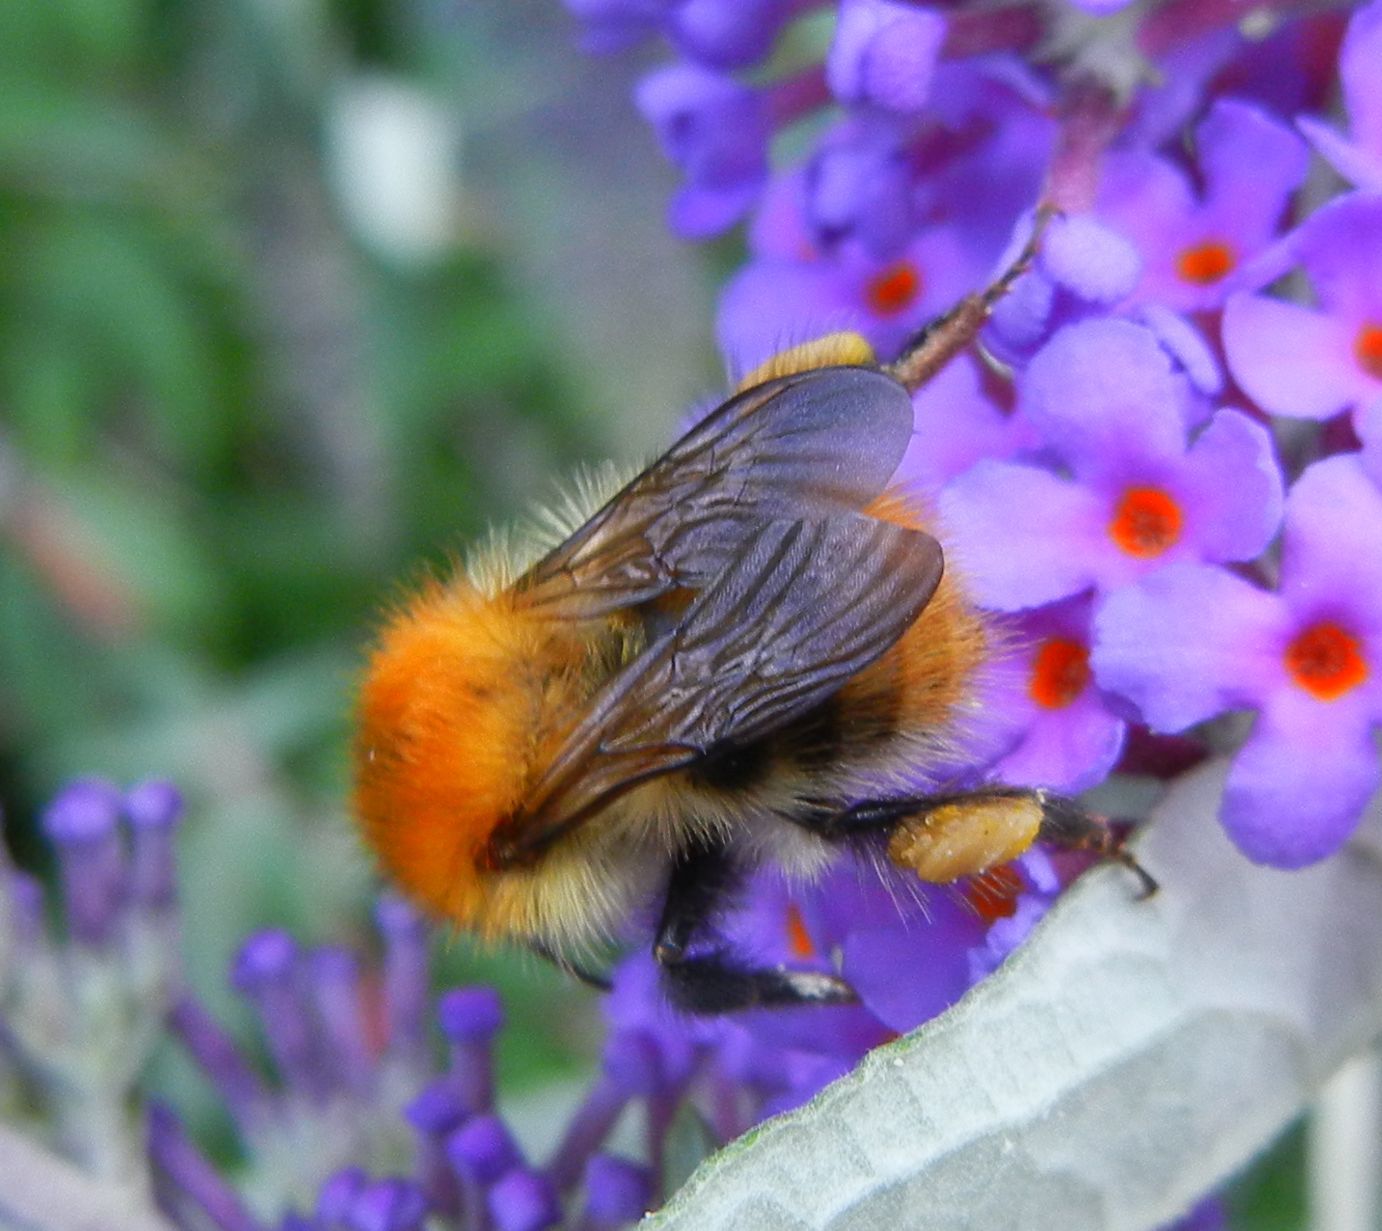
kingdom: Animalia
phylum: Arthropoda
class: Insecta
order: Hymenoptera
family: Apidae
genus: Bombus
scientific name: Bombus pascuorum
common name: Common carder bee
